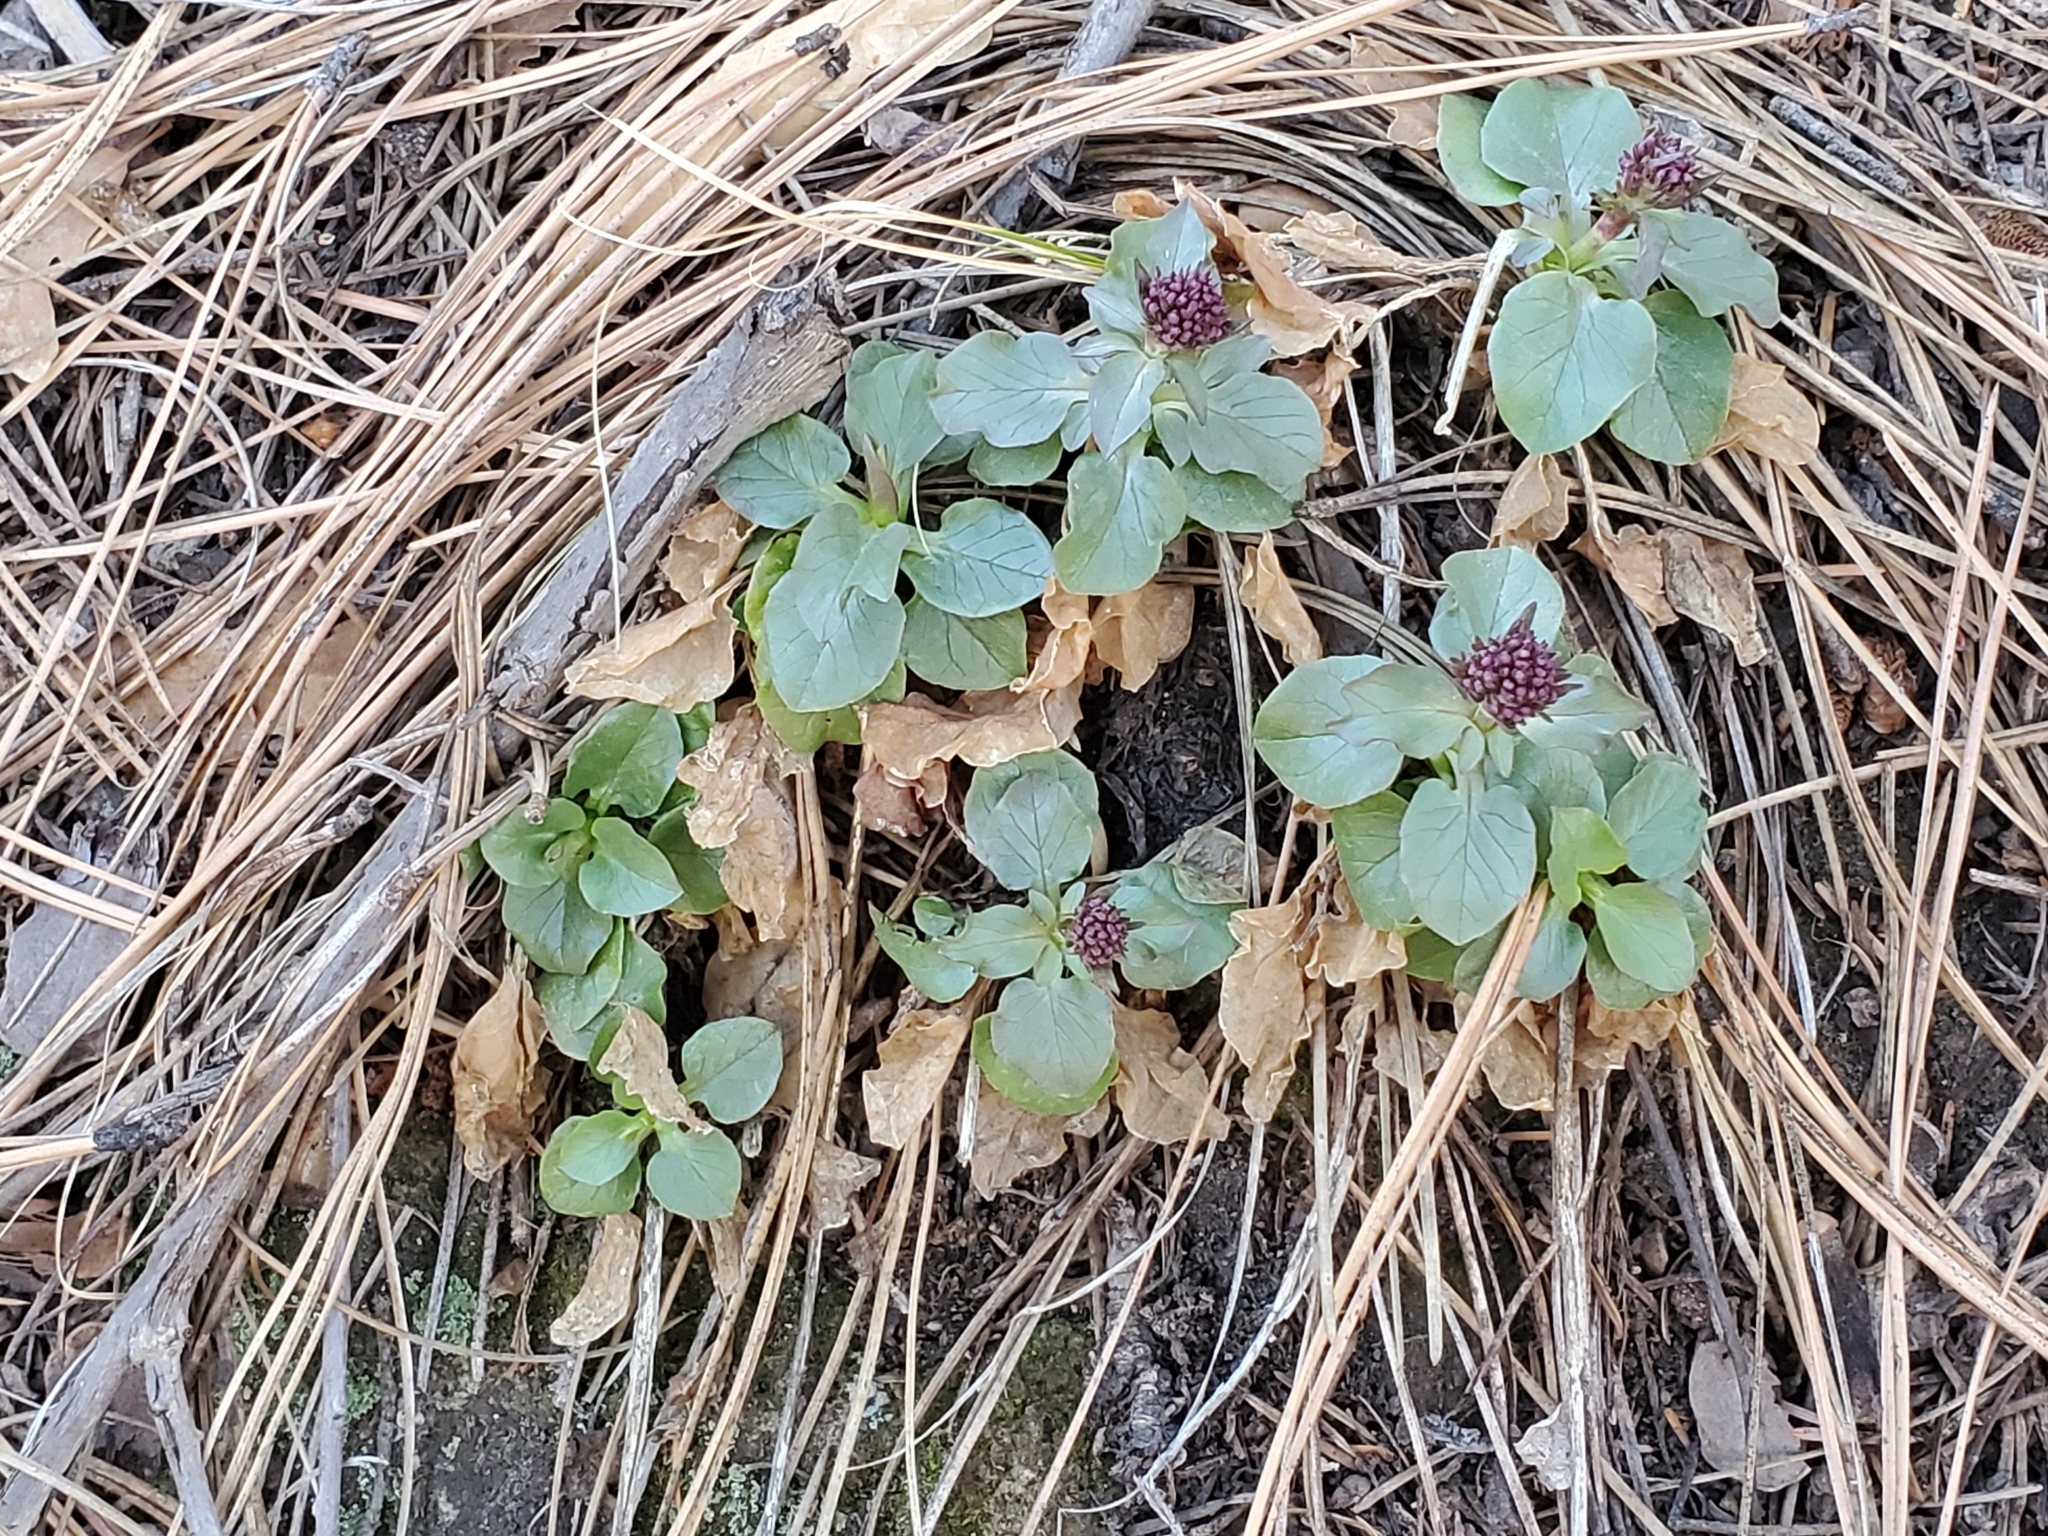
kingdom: Plantae
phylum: Tracheophyta
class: Magnoliopsida
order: Dipsacales
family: Caprifoliaceae
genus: Valeriana
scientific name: Valeriana arizonica
